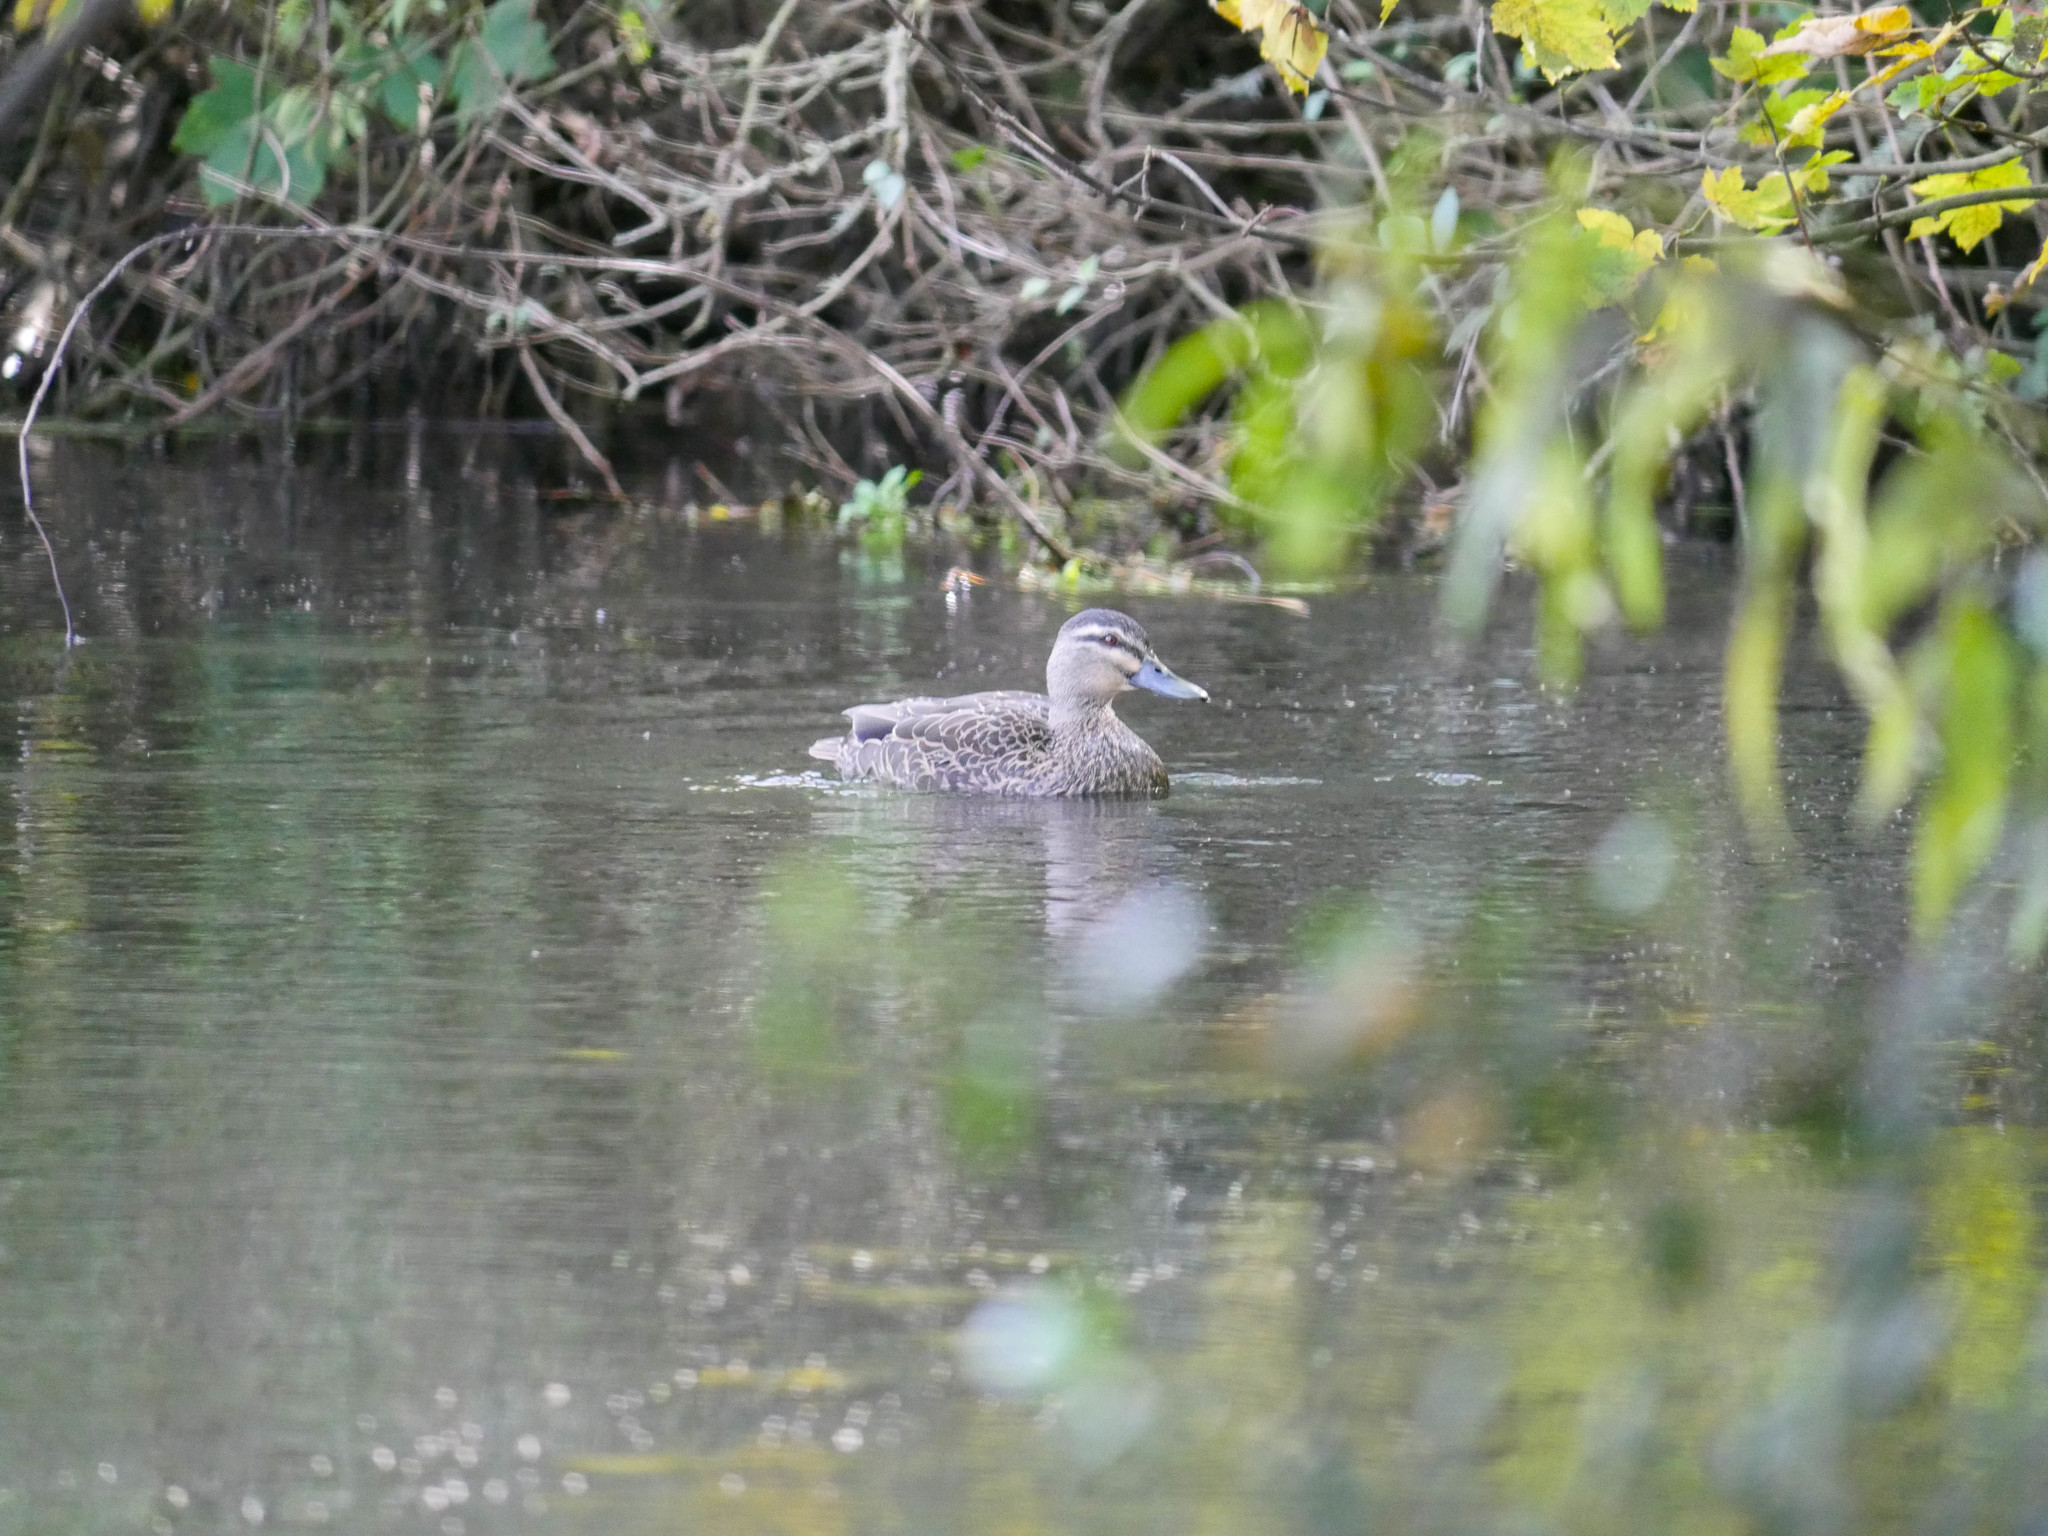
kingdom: Animalia
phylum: Chordata
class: Aves
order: Anseriformes
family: Anatidae
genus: Anas
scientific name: Anas
